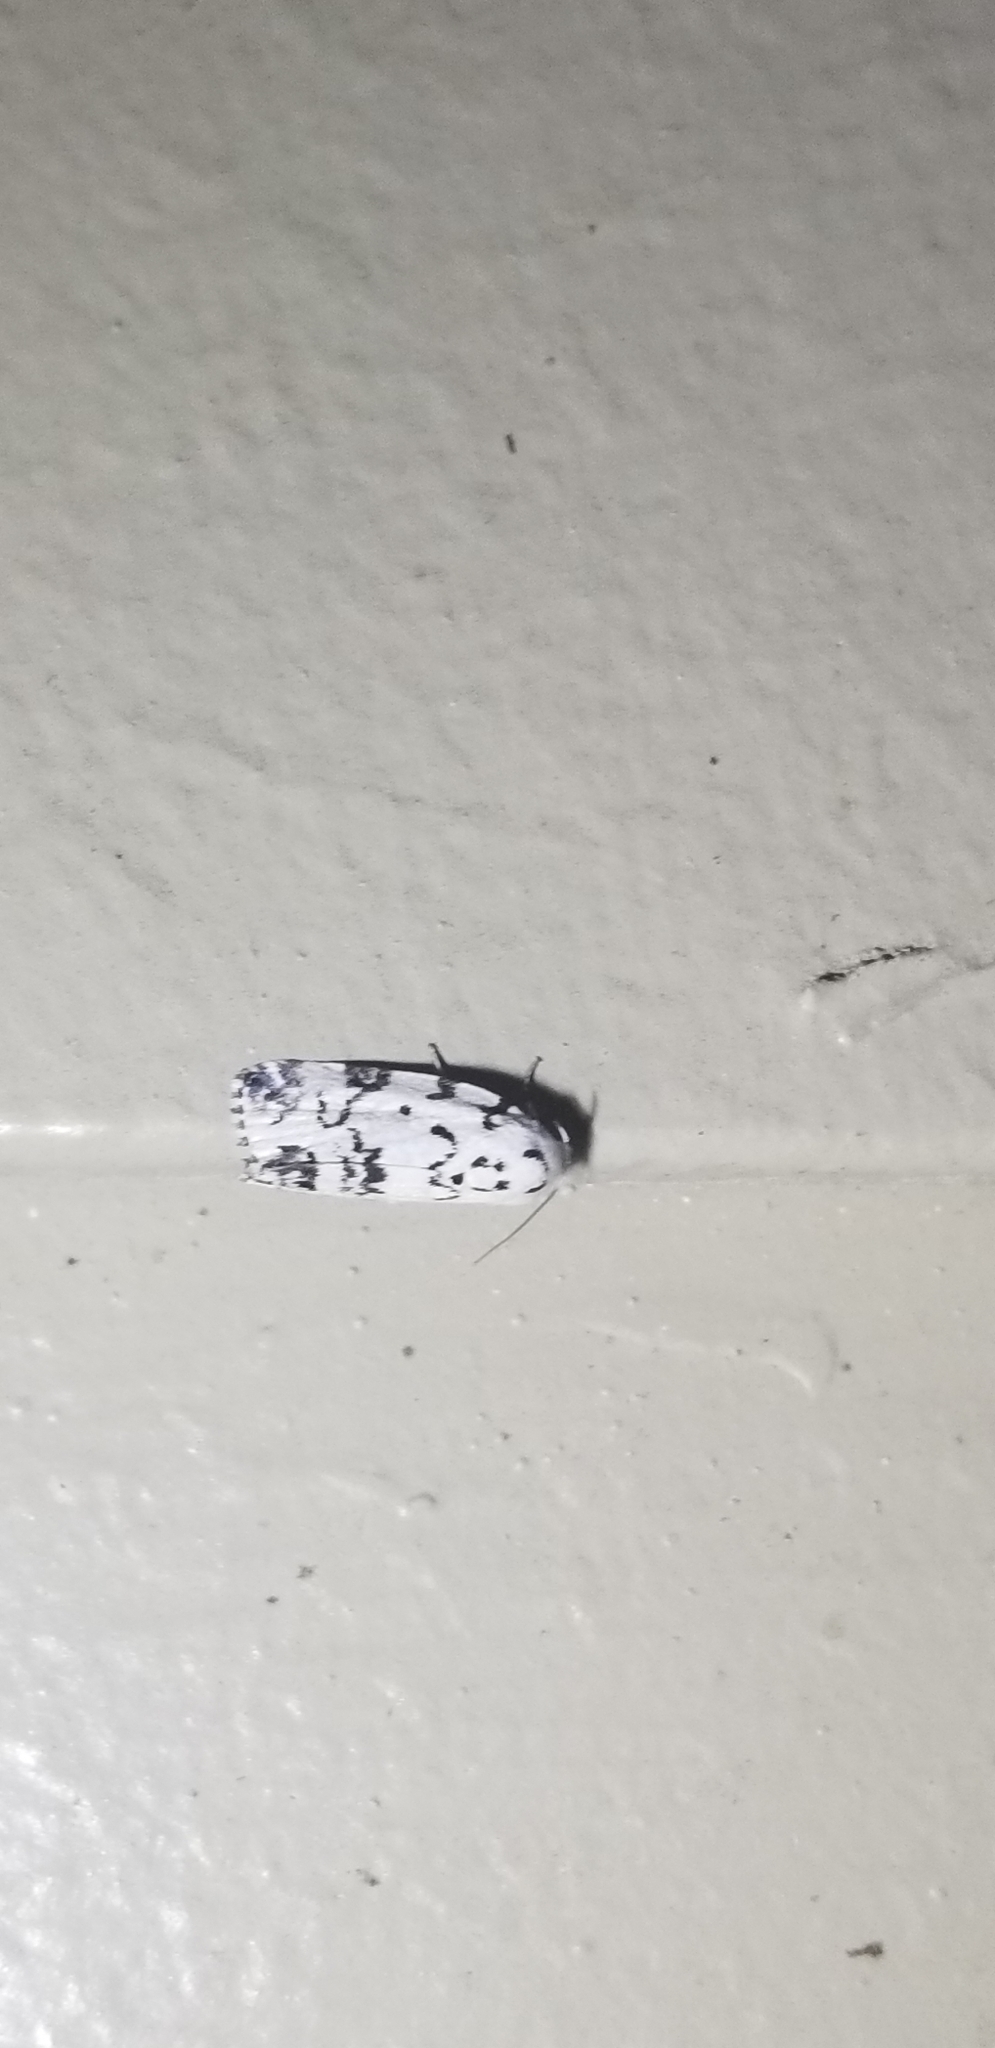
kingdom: Animalia
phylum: Arthropoda
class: Insecta
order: Lepidoptera
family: Noctuidae
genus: Polygrammate
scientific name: Polygrammate hebraeicum
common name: Hebrew moth
